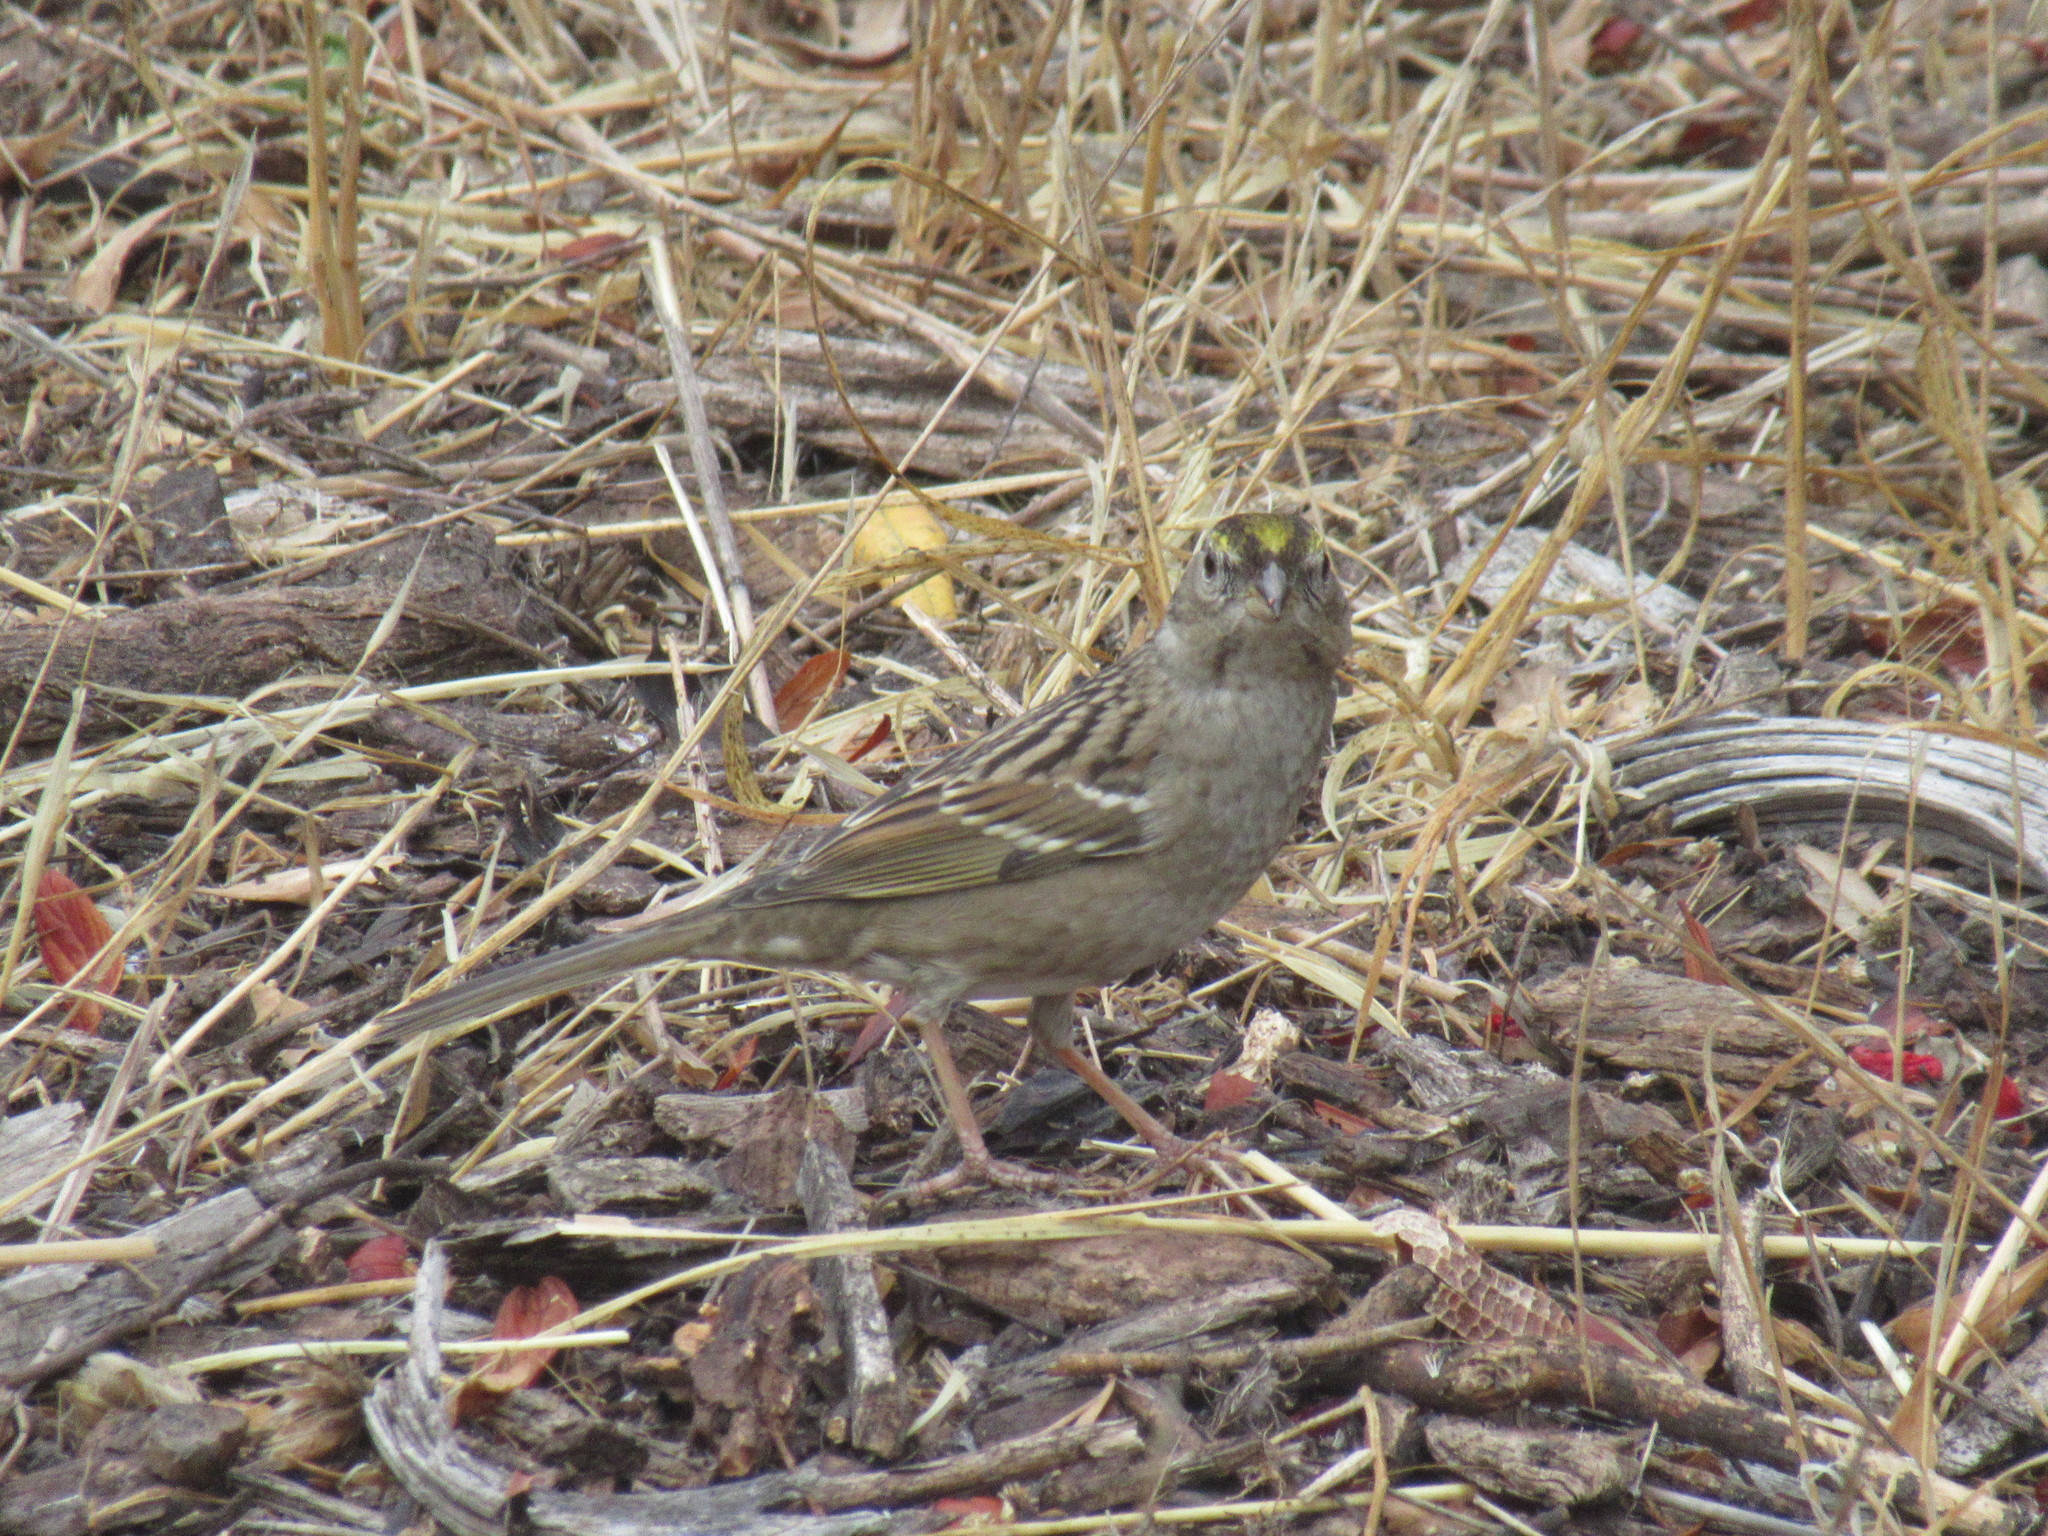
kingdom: Animalia
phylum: Chordata
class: Aves
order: Passeriformes
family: Passerellidae
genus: Zonotrichia
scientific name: Zonotrichia atricapilla
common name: Golden-crowned sparrow
